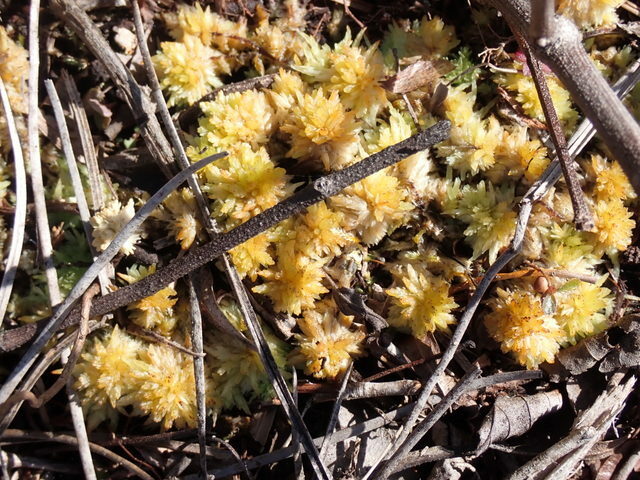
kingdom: Plantae
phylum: Bryophyta
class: Sphagnopsida
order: Sphagnales
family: Sphagnaceae
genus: Sphagnum
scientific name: Sphagnum perichaetiale
